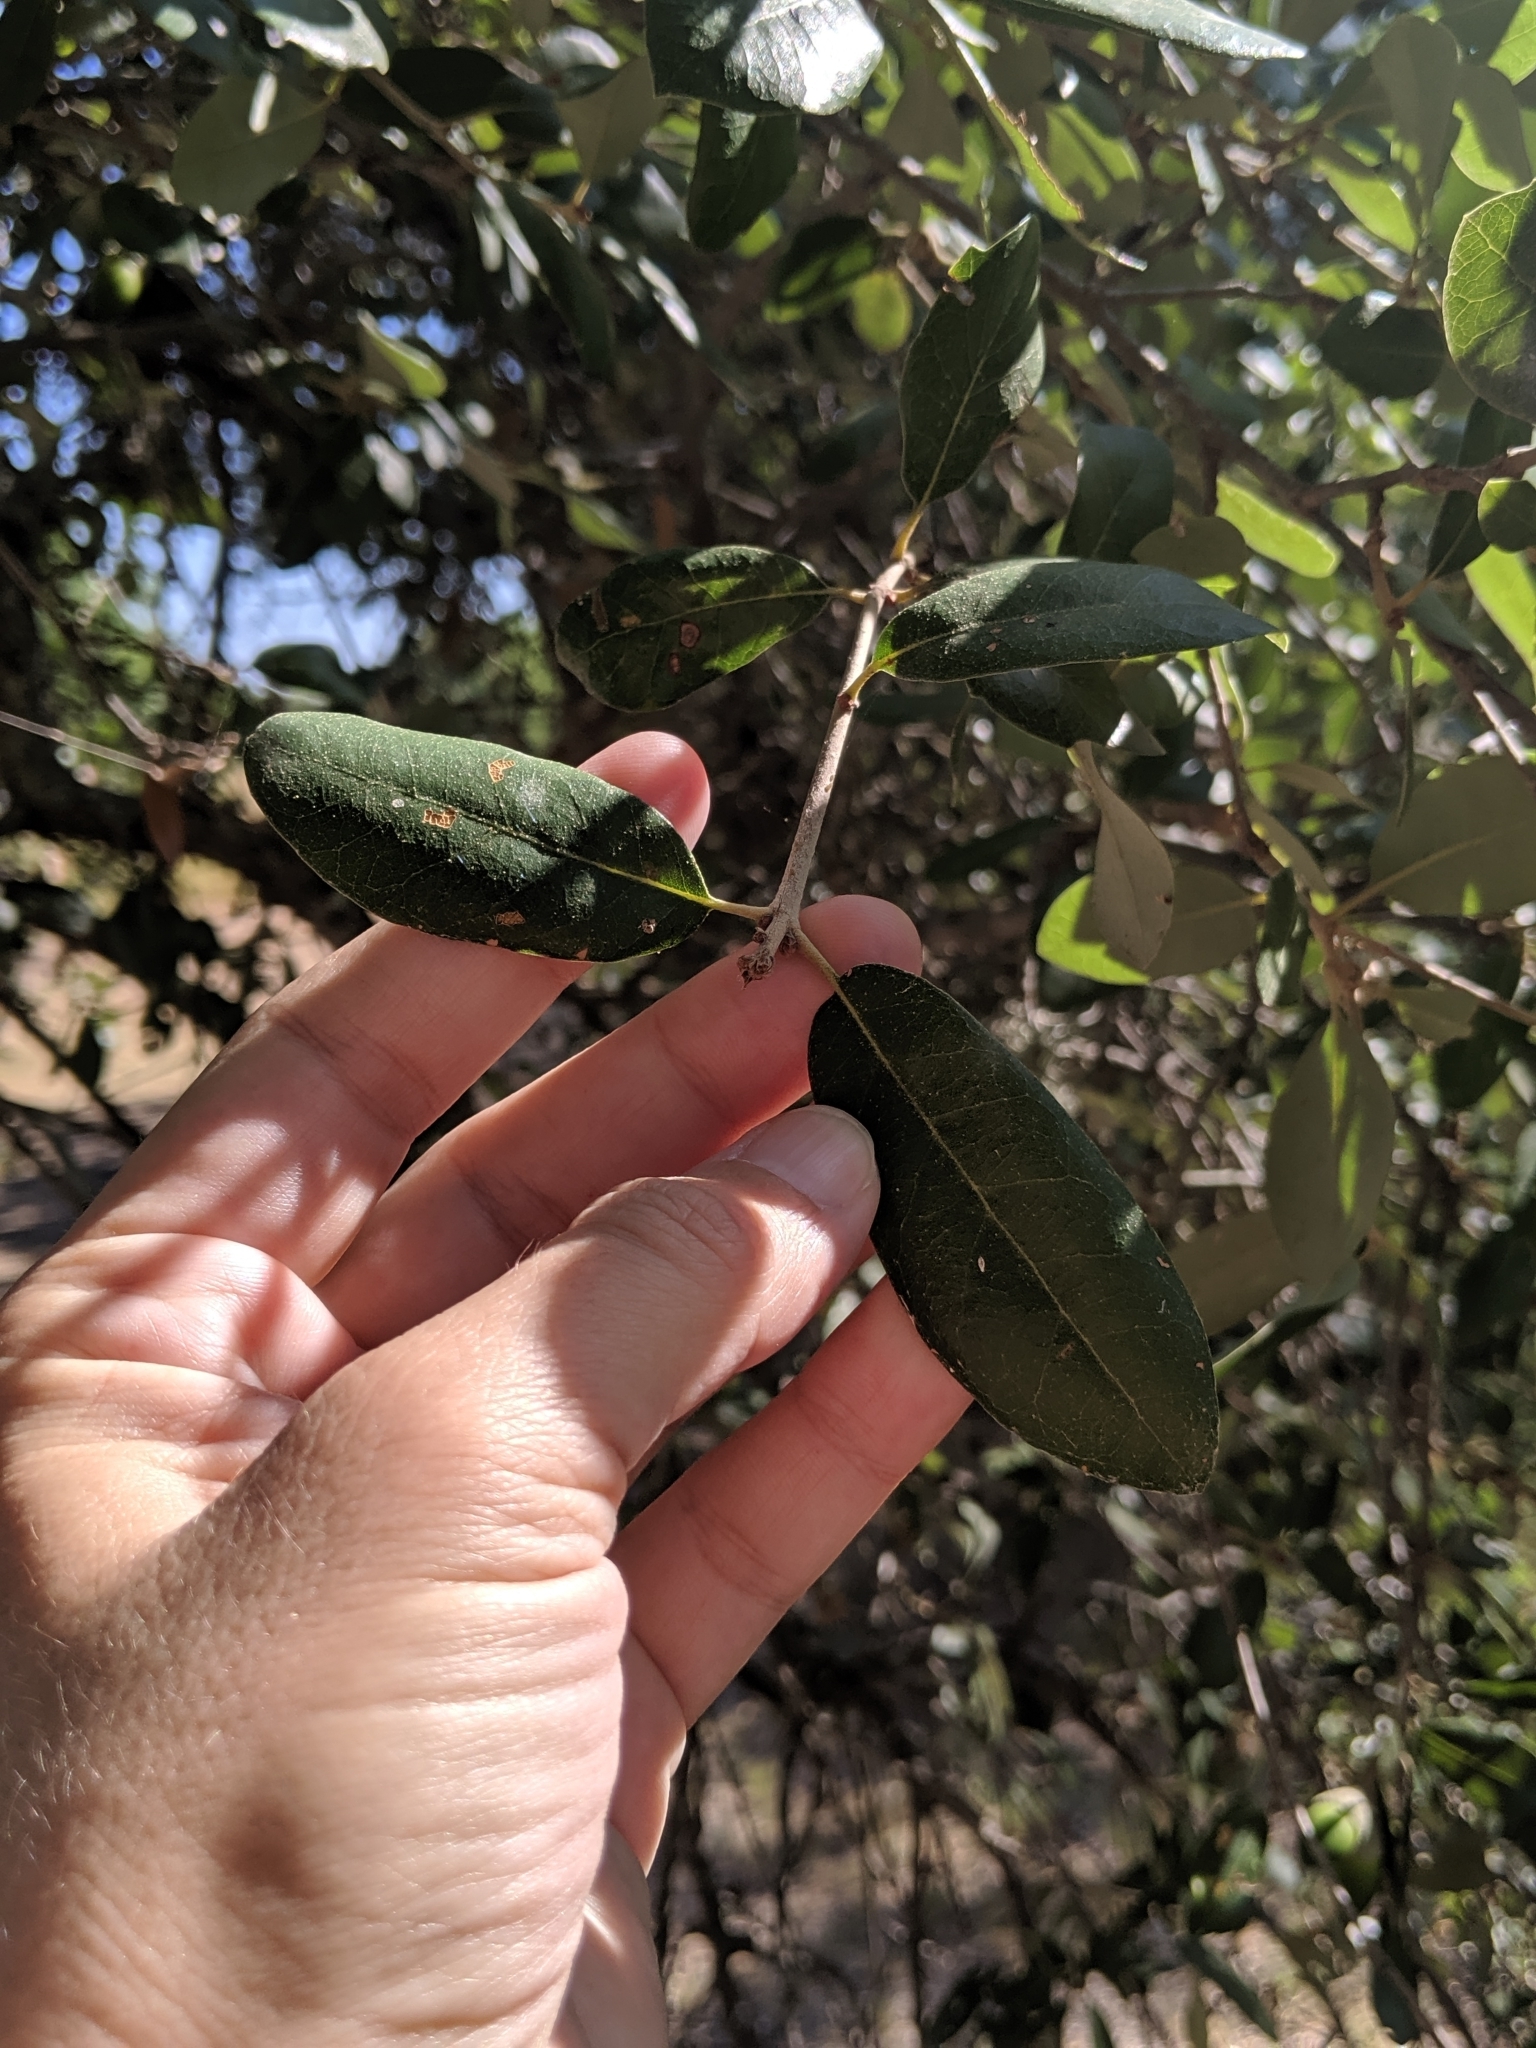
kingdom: Plantae
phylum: Tracheophyta
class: Magnoliopsida
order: Fagales
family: Fagaceae
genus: Quercus
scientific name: Quercus fusiformis
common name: Texas live oak
